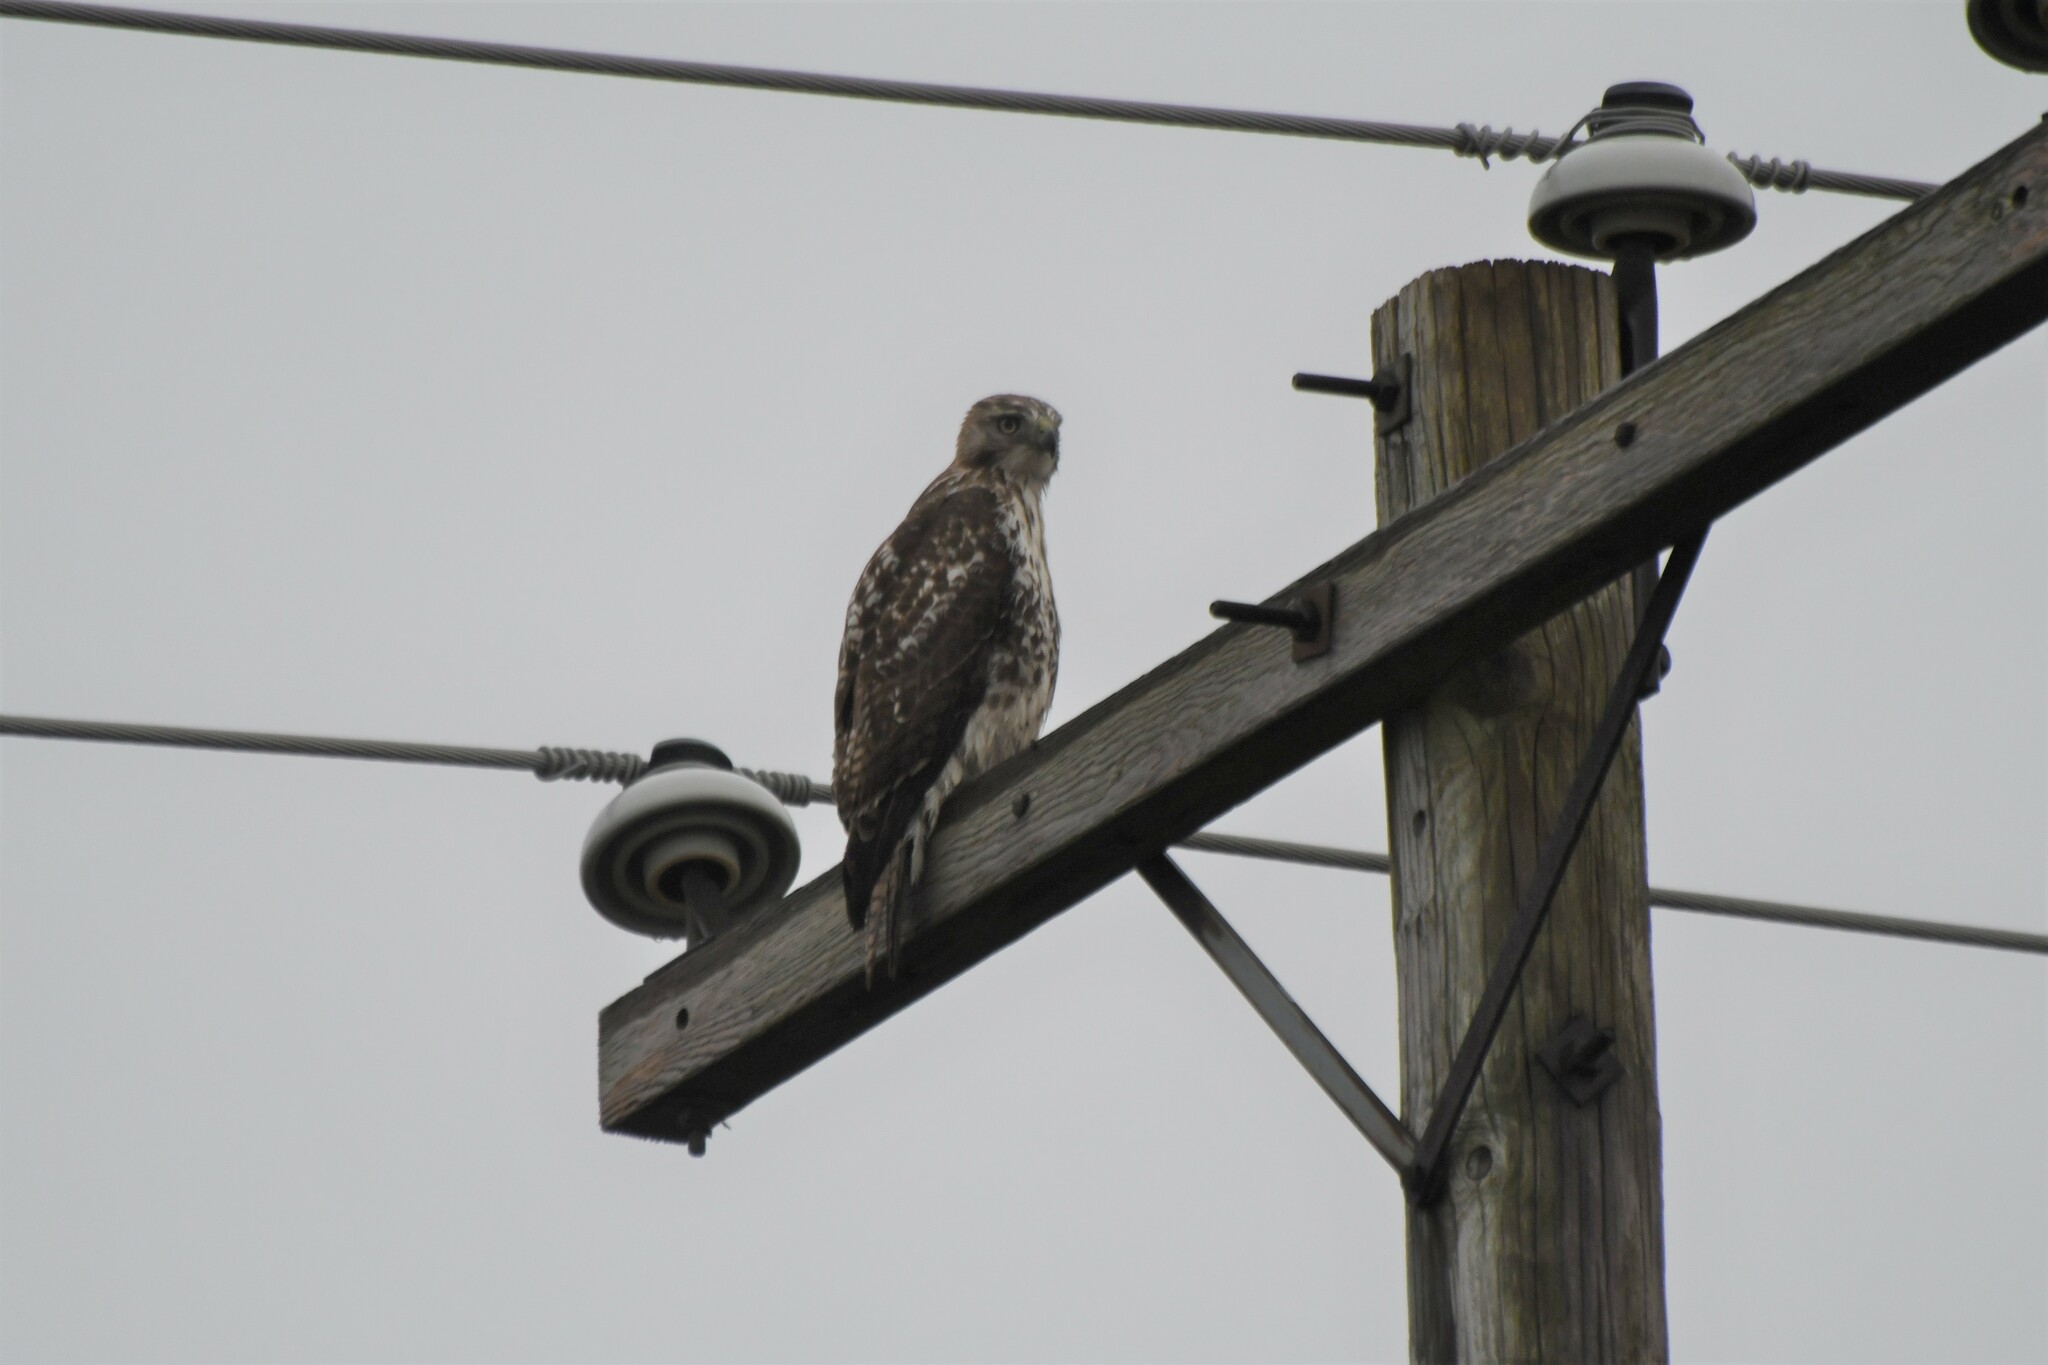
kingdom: Animalia
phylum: Chordata
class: Aves
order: Accipitriformes
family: Accipitridae
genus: Buteo
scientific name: Buteo jamaicensis
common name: Red-tailed hawk
